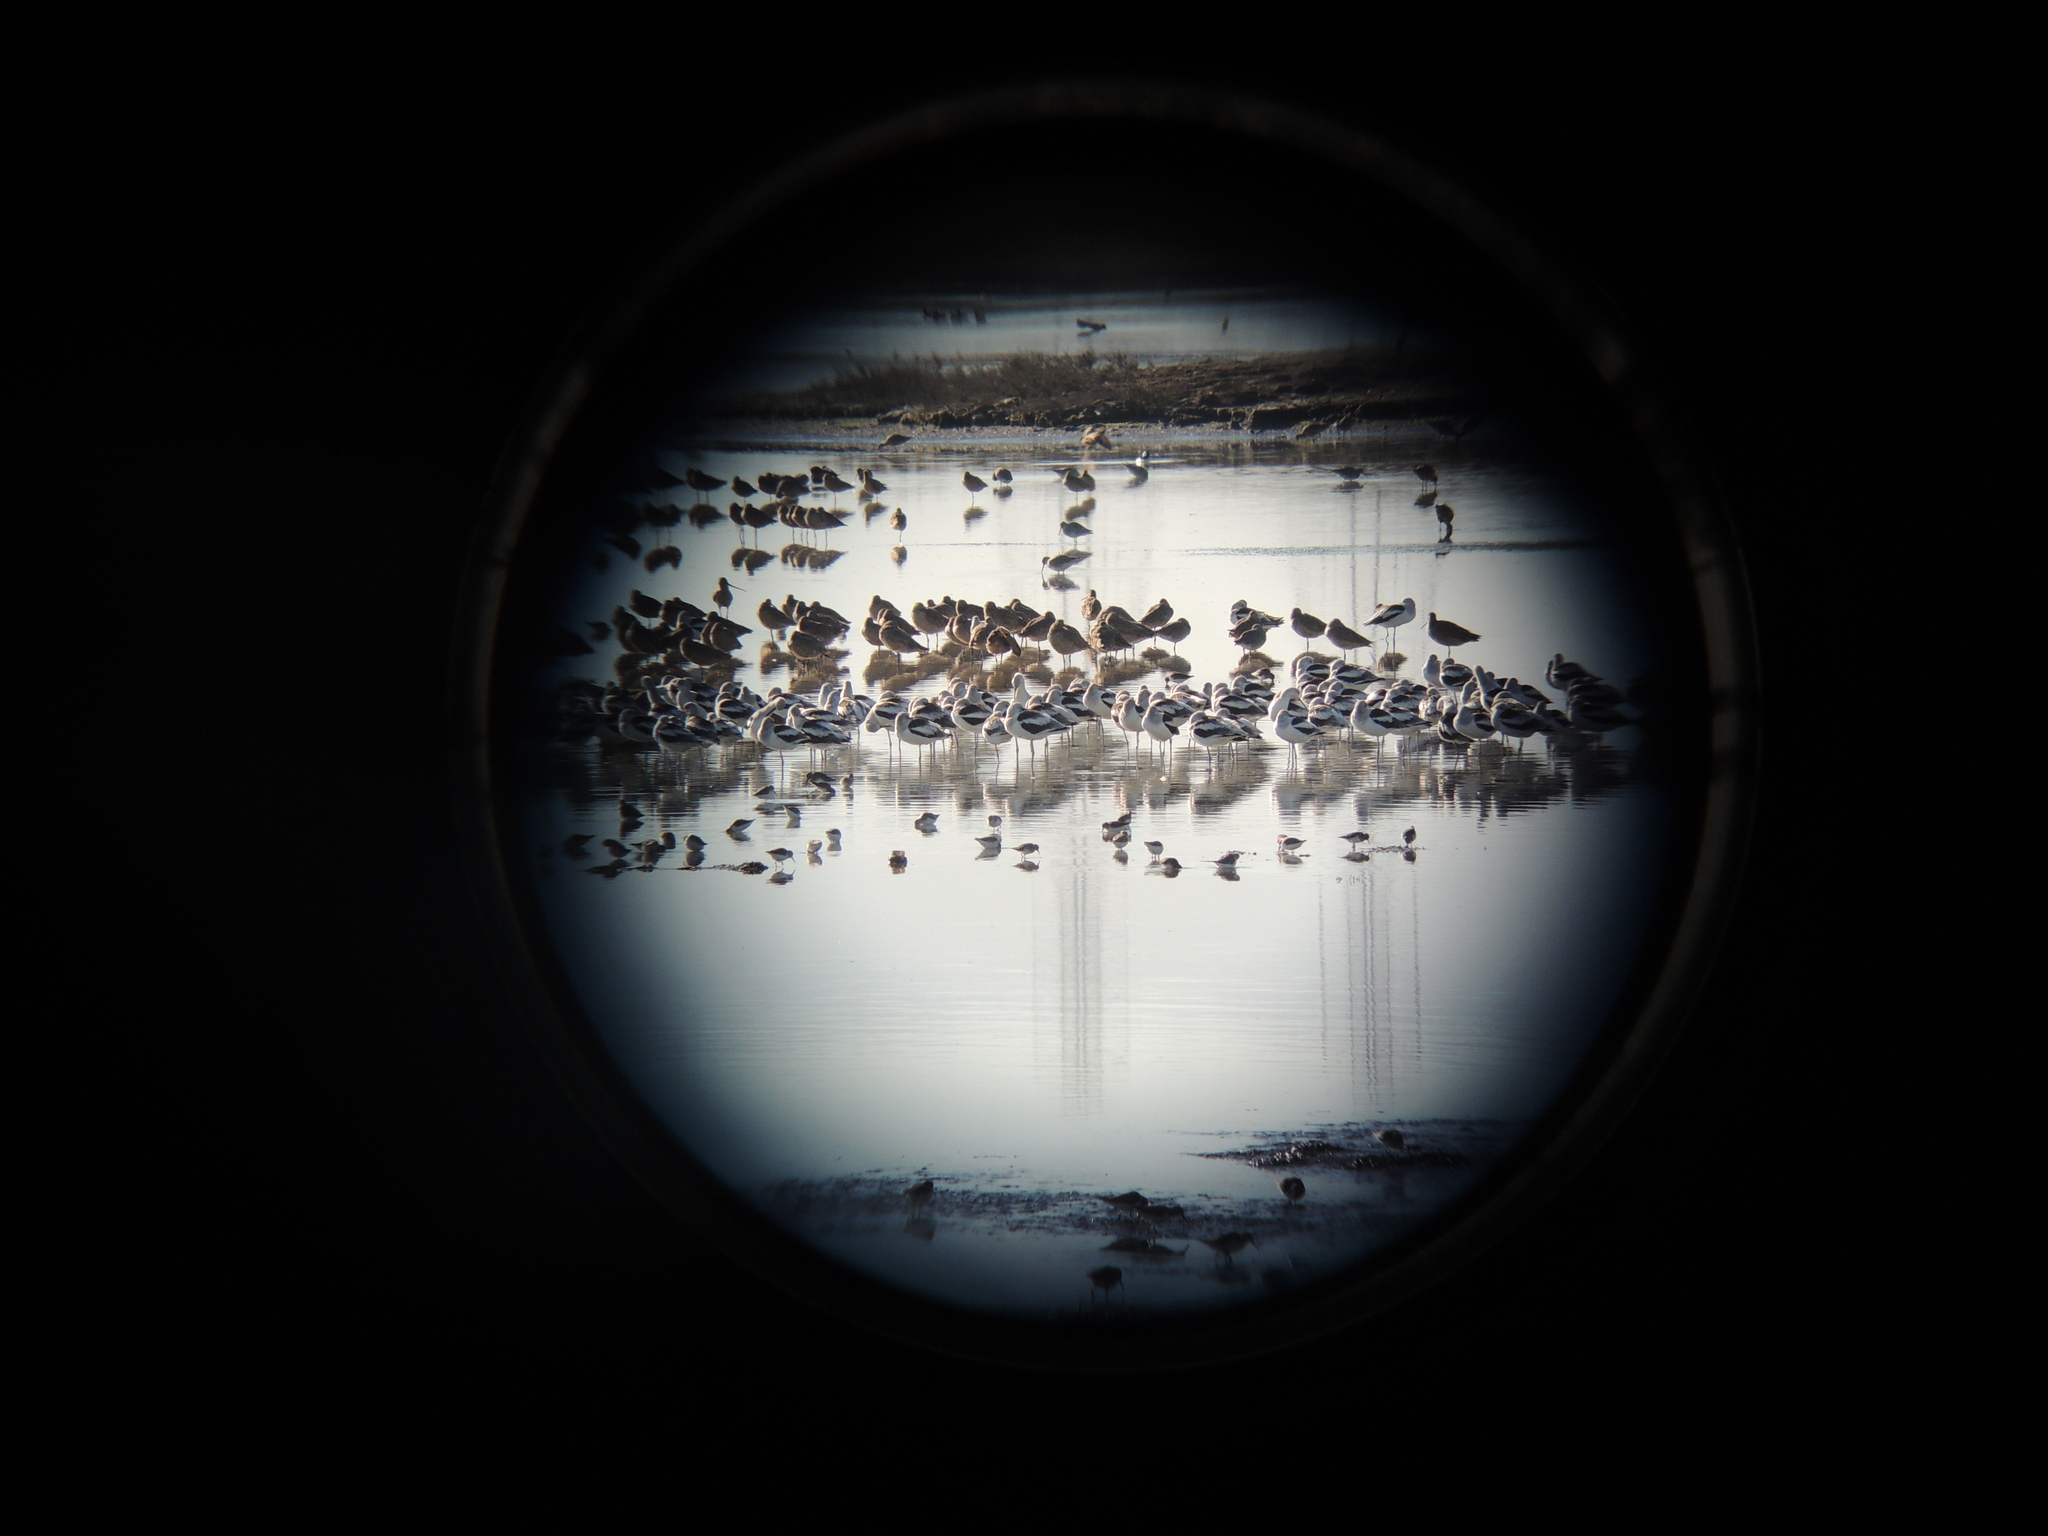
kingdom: Animalia
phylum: Chordata
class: Aves
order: Charadriiformes
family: Recurvirostridae
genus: Recurvirostra
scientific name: Recurvirostra americana
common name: American avocet
